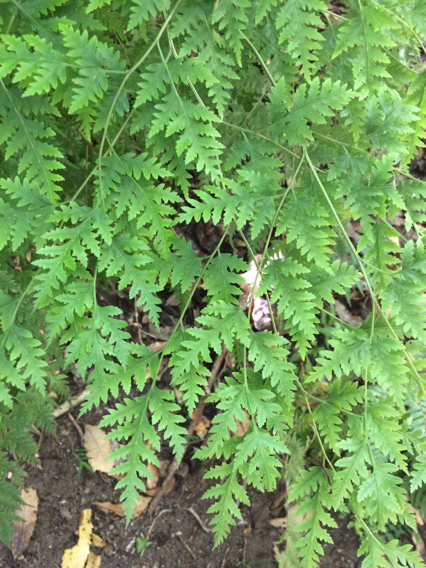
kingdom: Plantae
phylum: Tracheophyta
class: Polypodiopsida
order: Polypodiales
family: Pteridaceae
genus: Pteris
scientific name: Pteris macilenta
